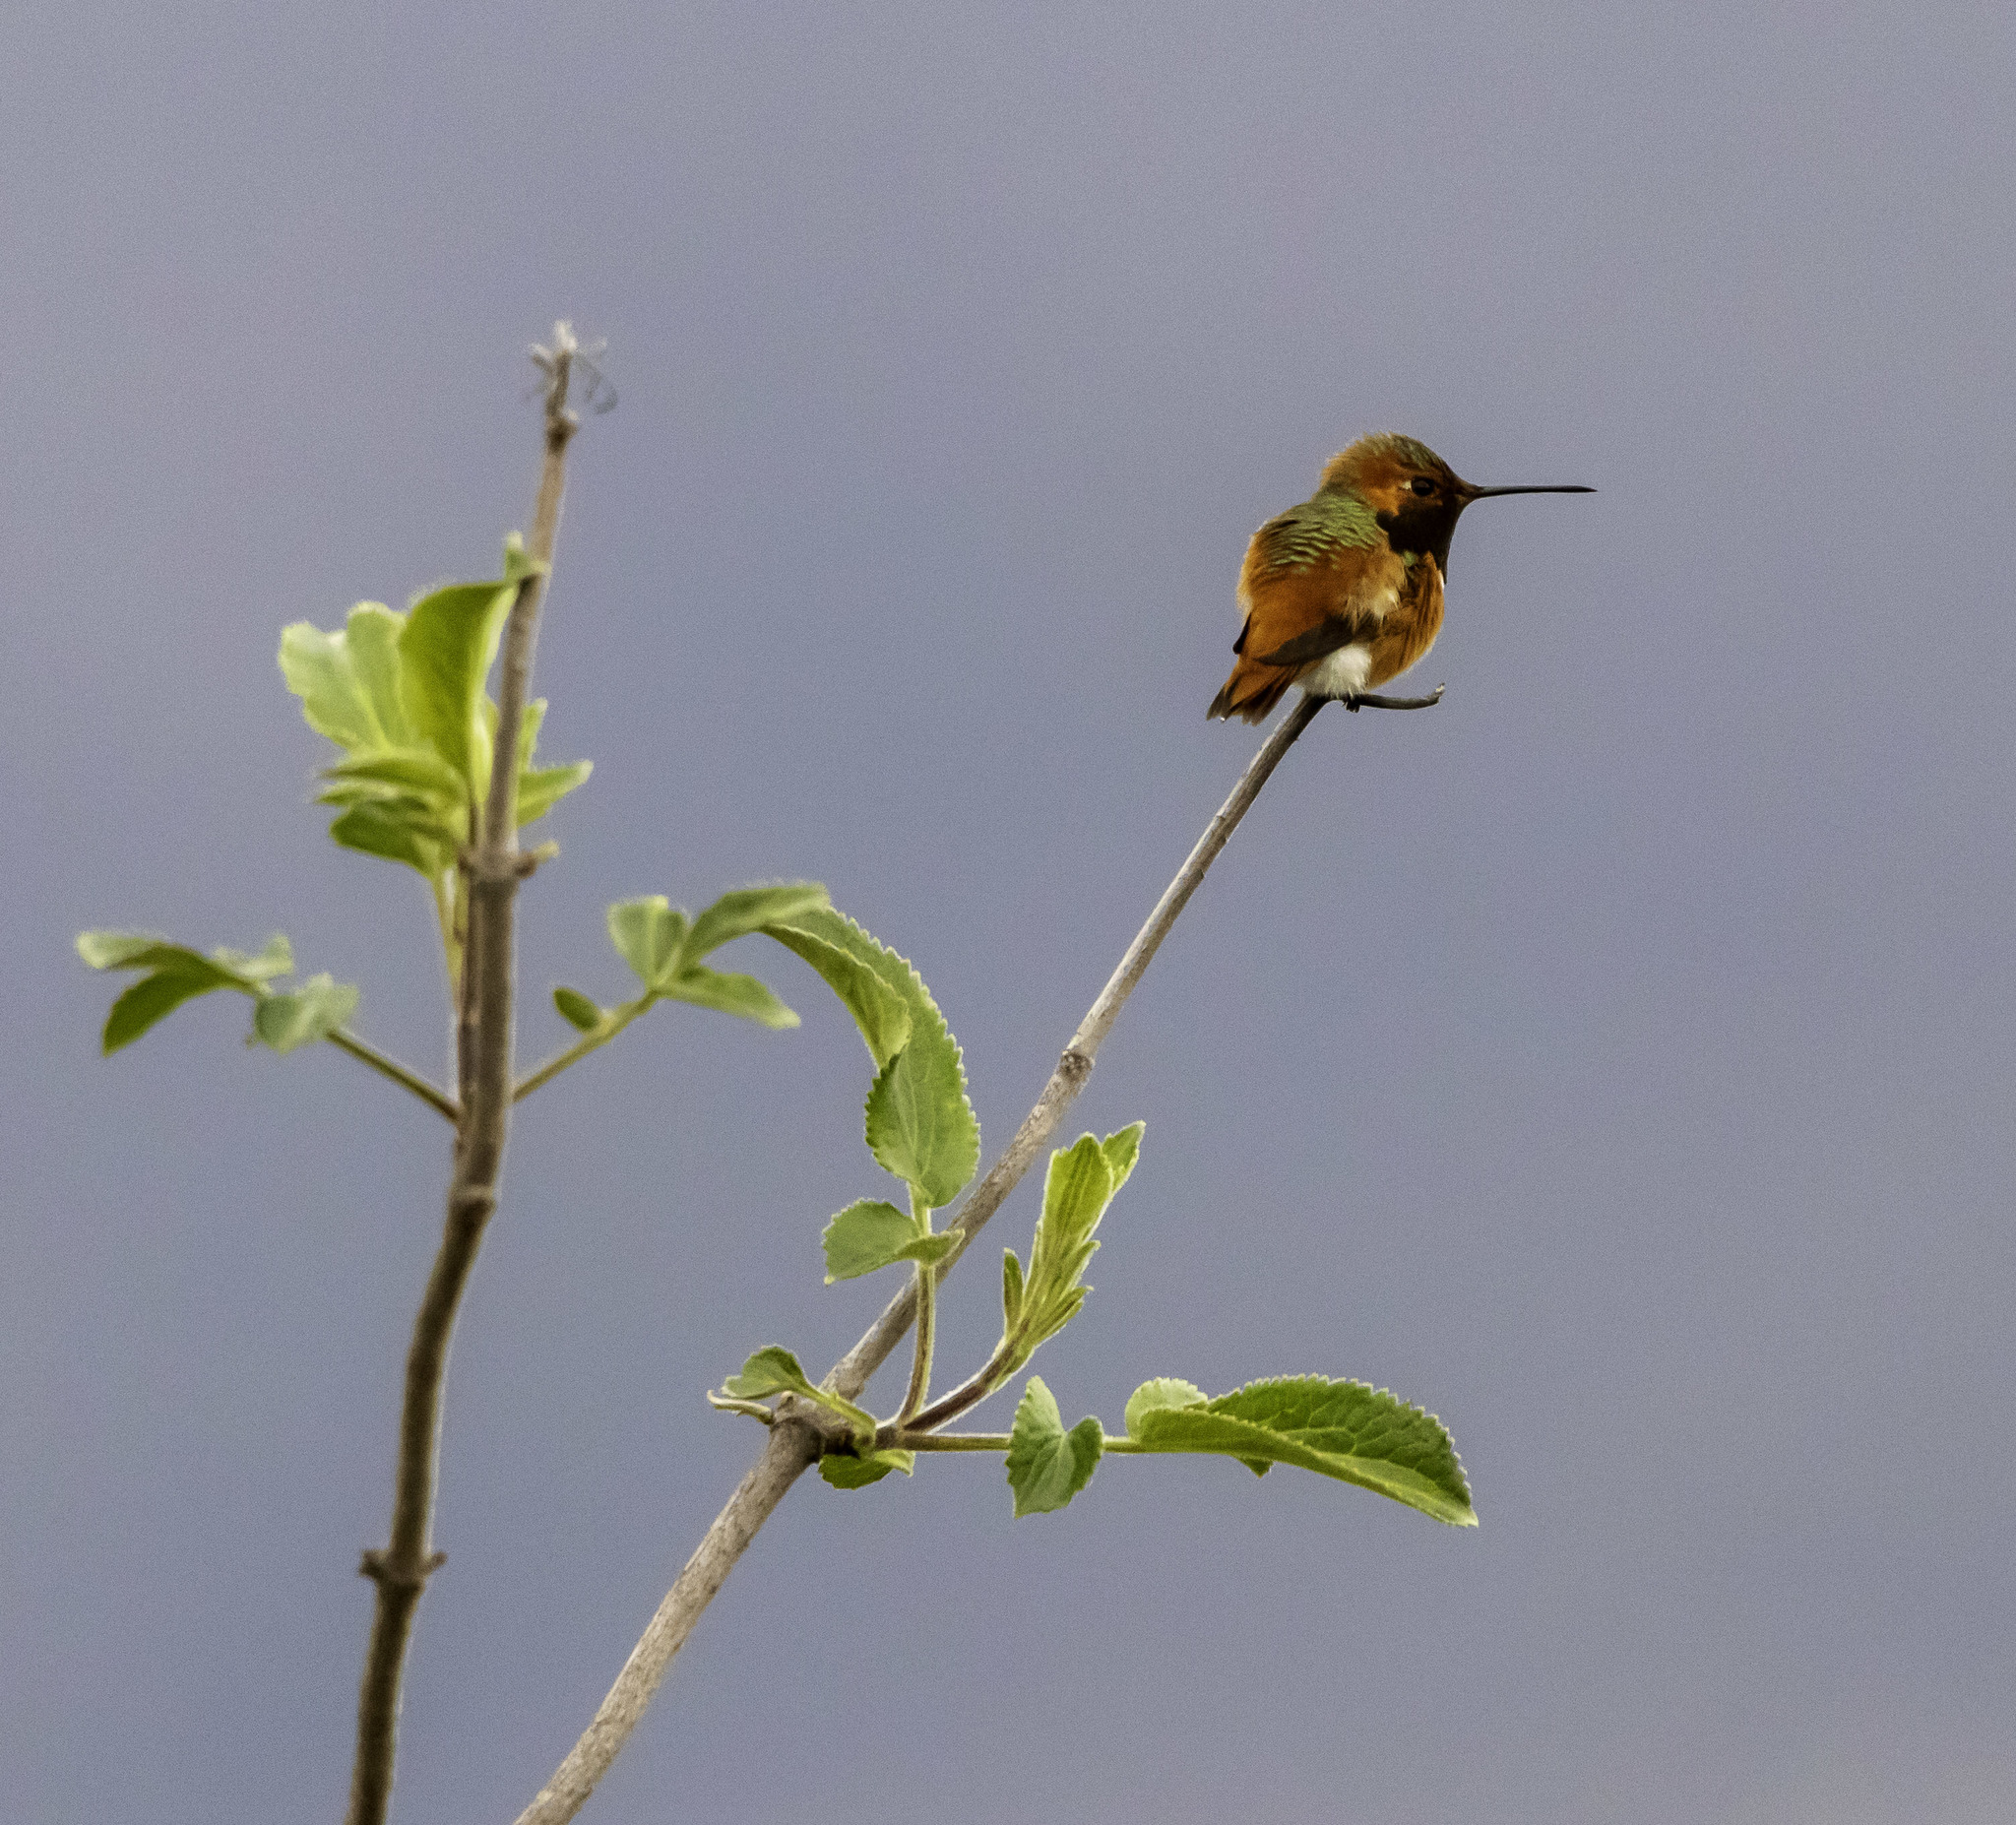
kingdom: Animalia
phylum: Chordata
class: Aves
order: Apodiformes
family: Trochilidae
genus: Selasphorus
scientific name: Selasphorus sasin
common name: Allen's hummingbird
